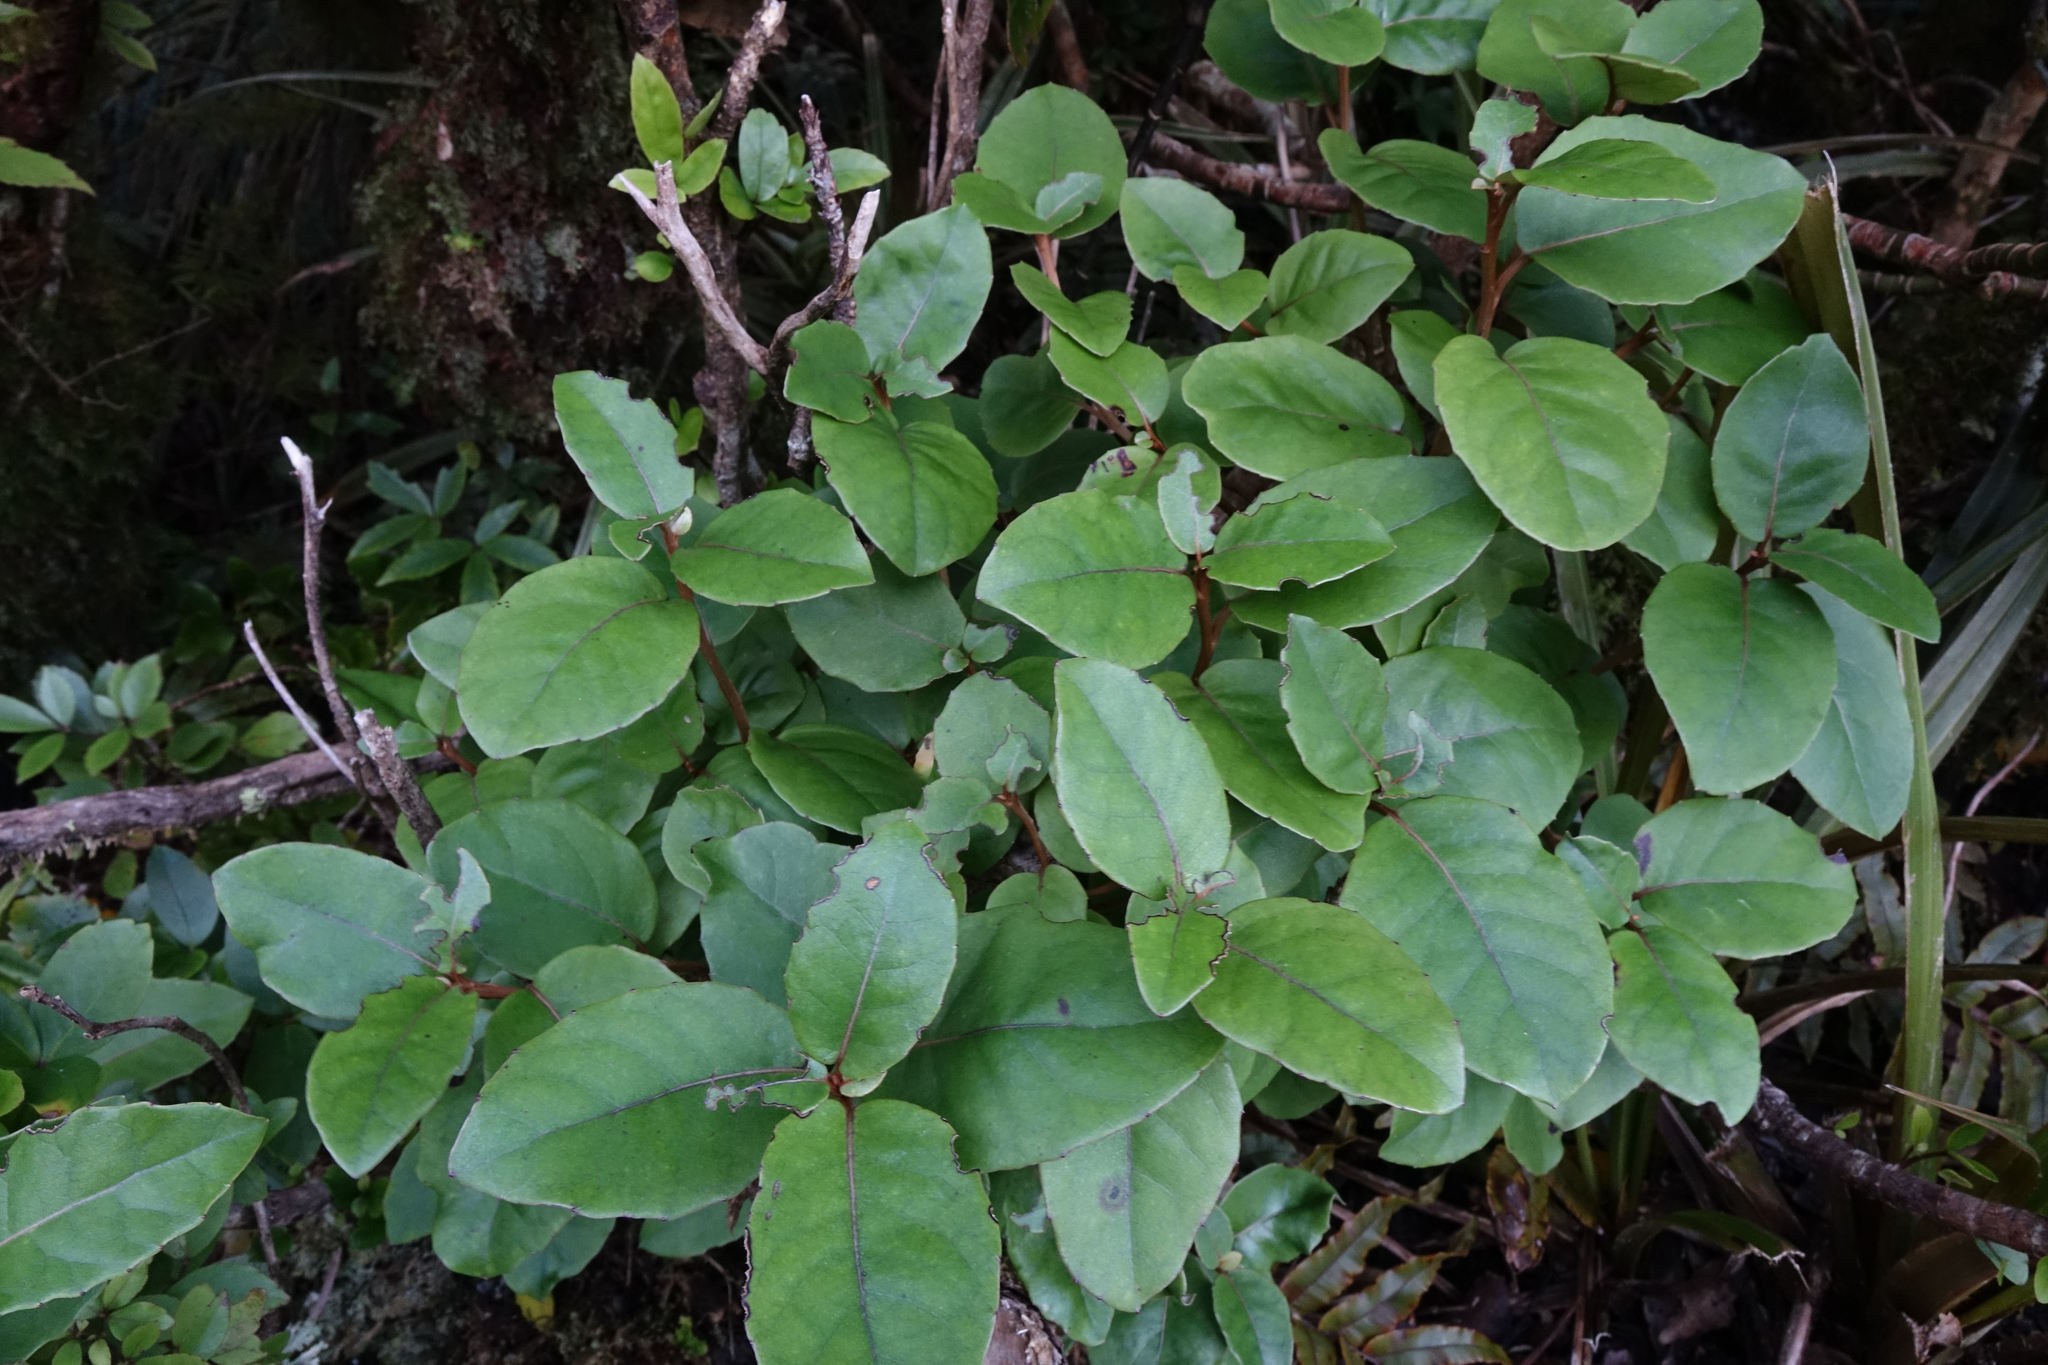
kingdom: Plantae
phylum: Tracheophyta
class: Magnoliopsida
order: Asterales
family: Asteraceae
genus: Olearia
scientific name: Olearia arborescens
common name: Glossy tree daisy
